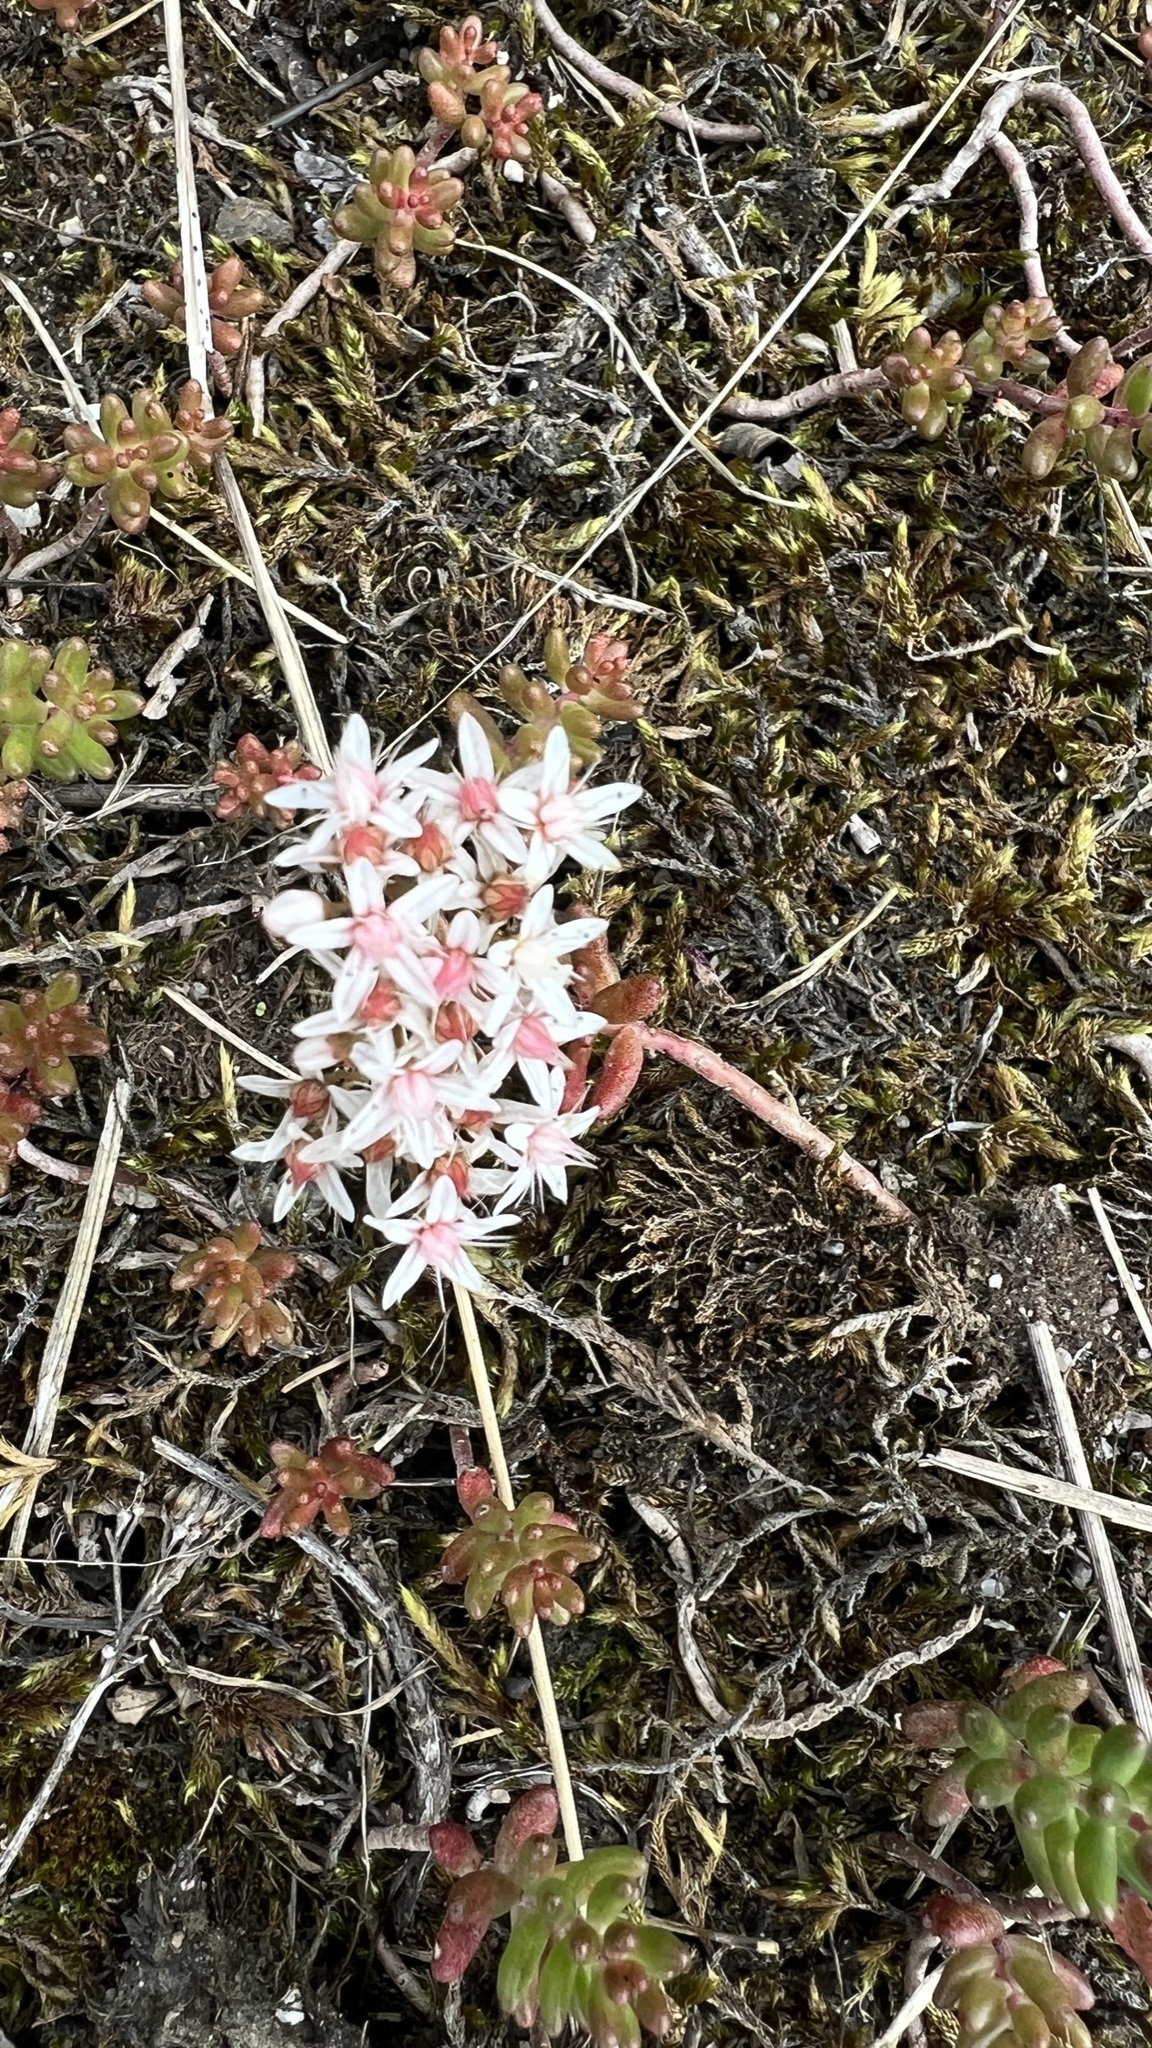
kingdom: Plantae
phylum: Tracheophyta
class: Magnoliopsida
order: Saxifragales
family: Crassulaceae
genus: Sedum
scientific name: Sedum album
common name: White stonecrop
